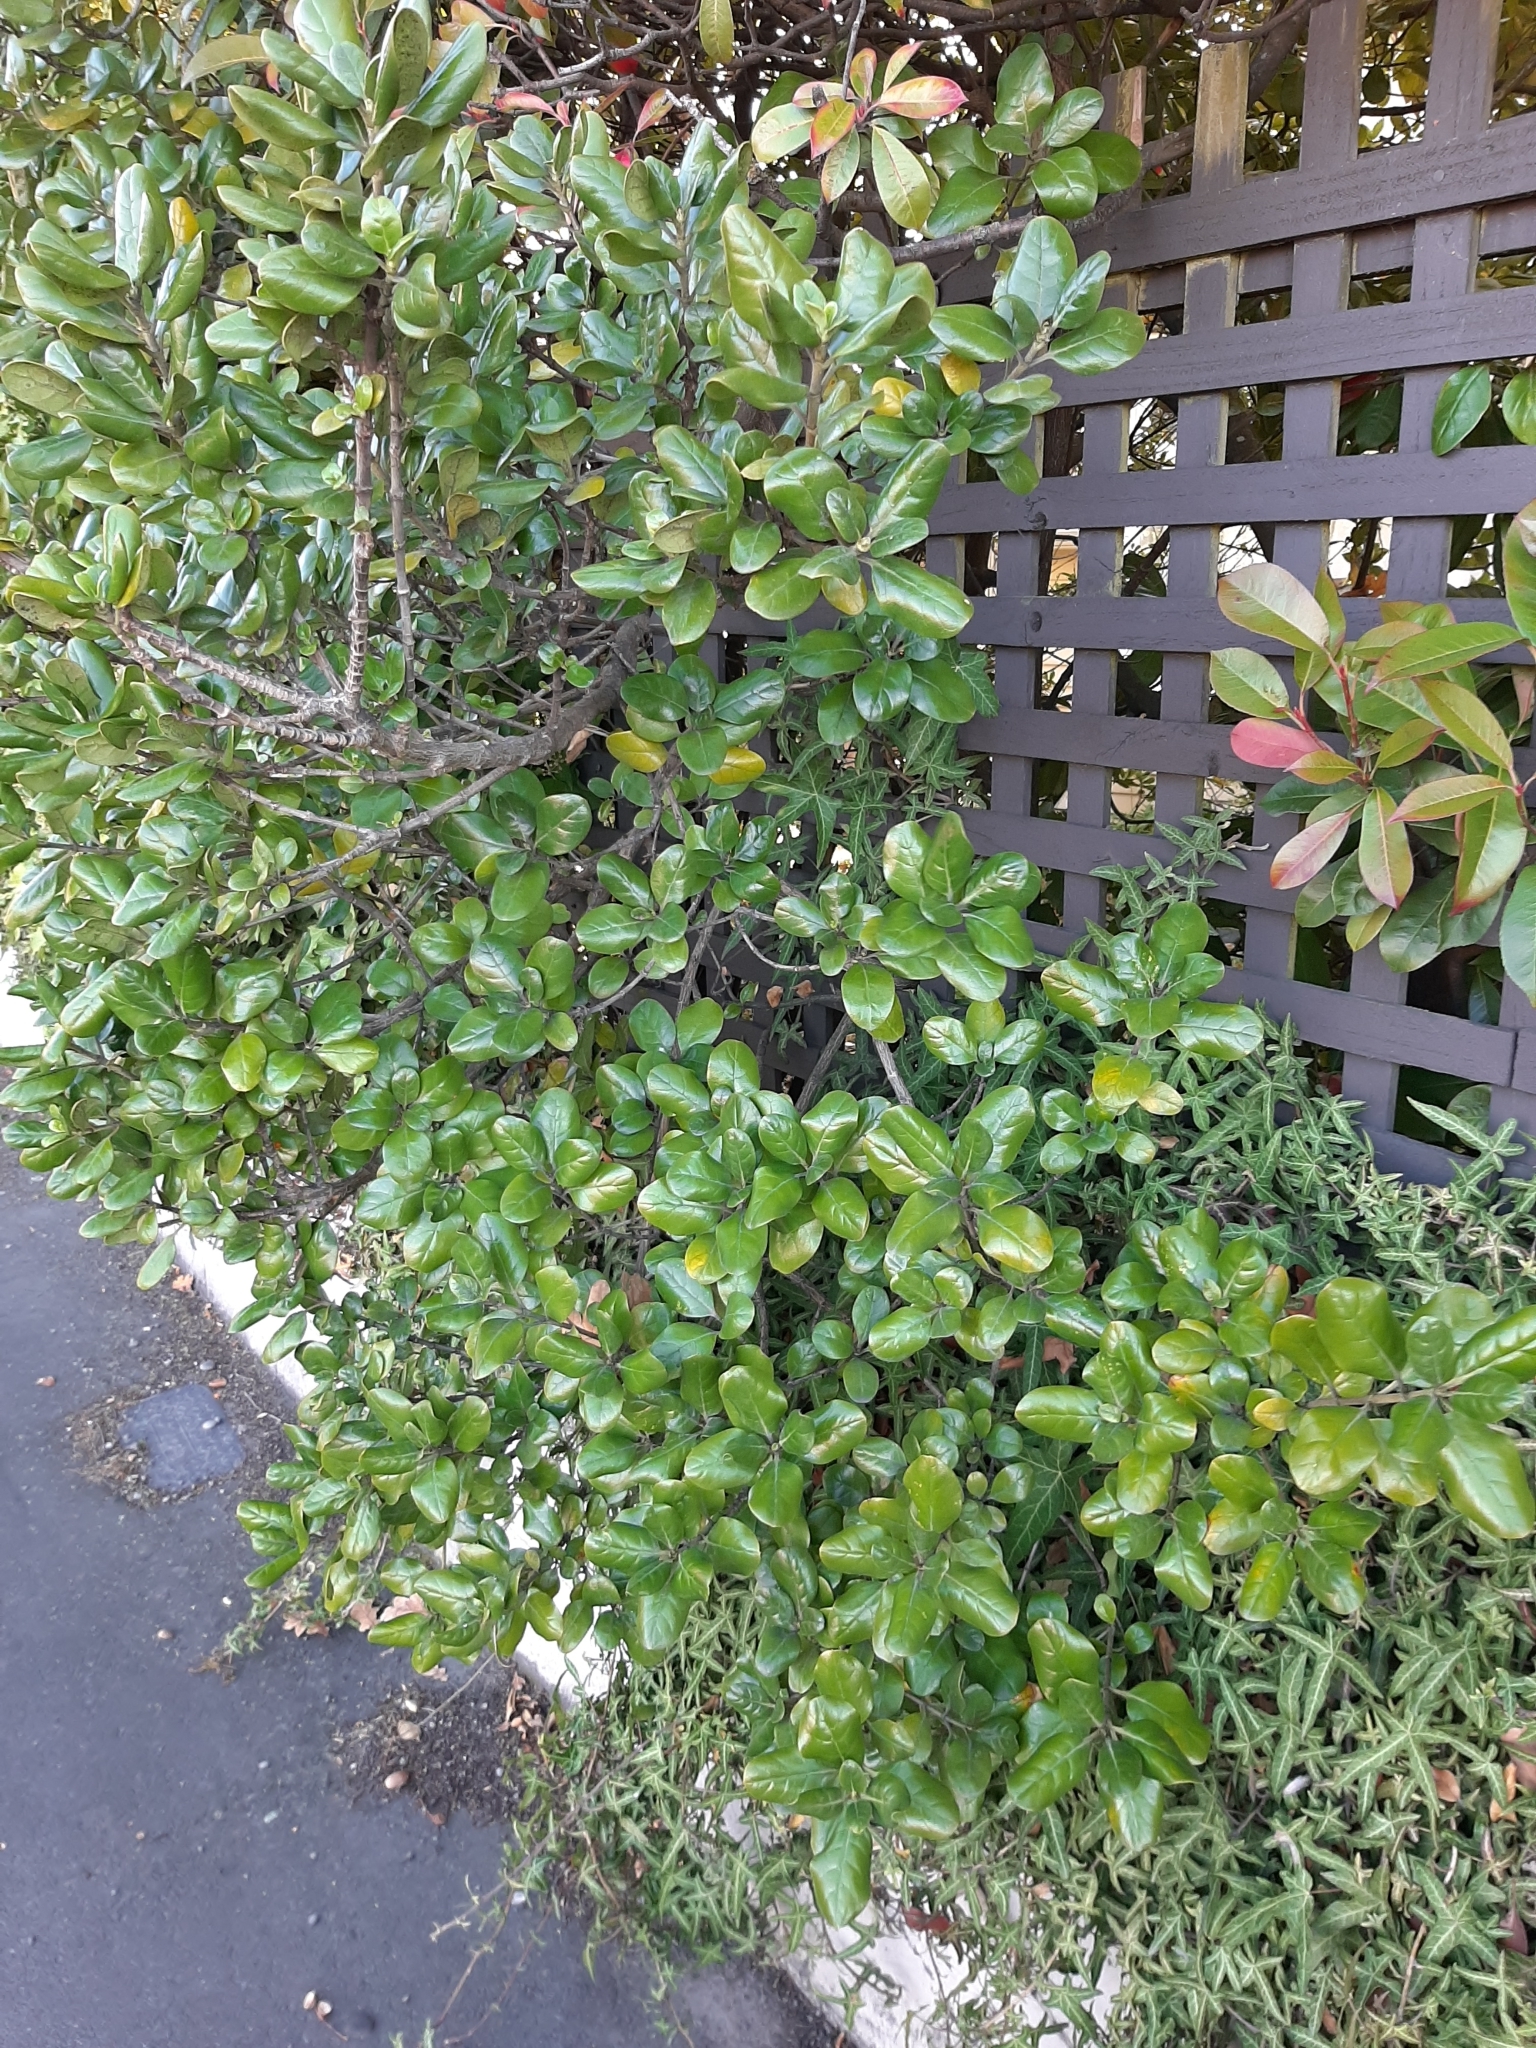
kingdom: Plantae
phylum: Tracheophyta
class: Magnoliopsida
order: Gentianales
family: Rubiaceae
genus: Coprosma
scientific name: Coprosma repens
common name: Tree bedstraw
